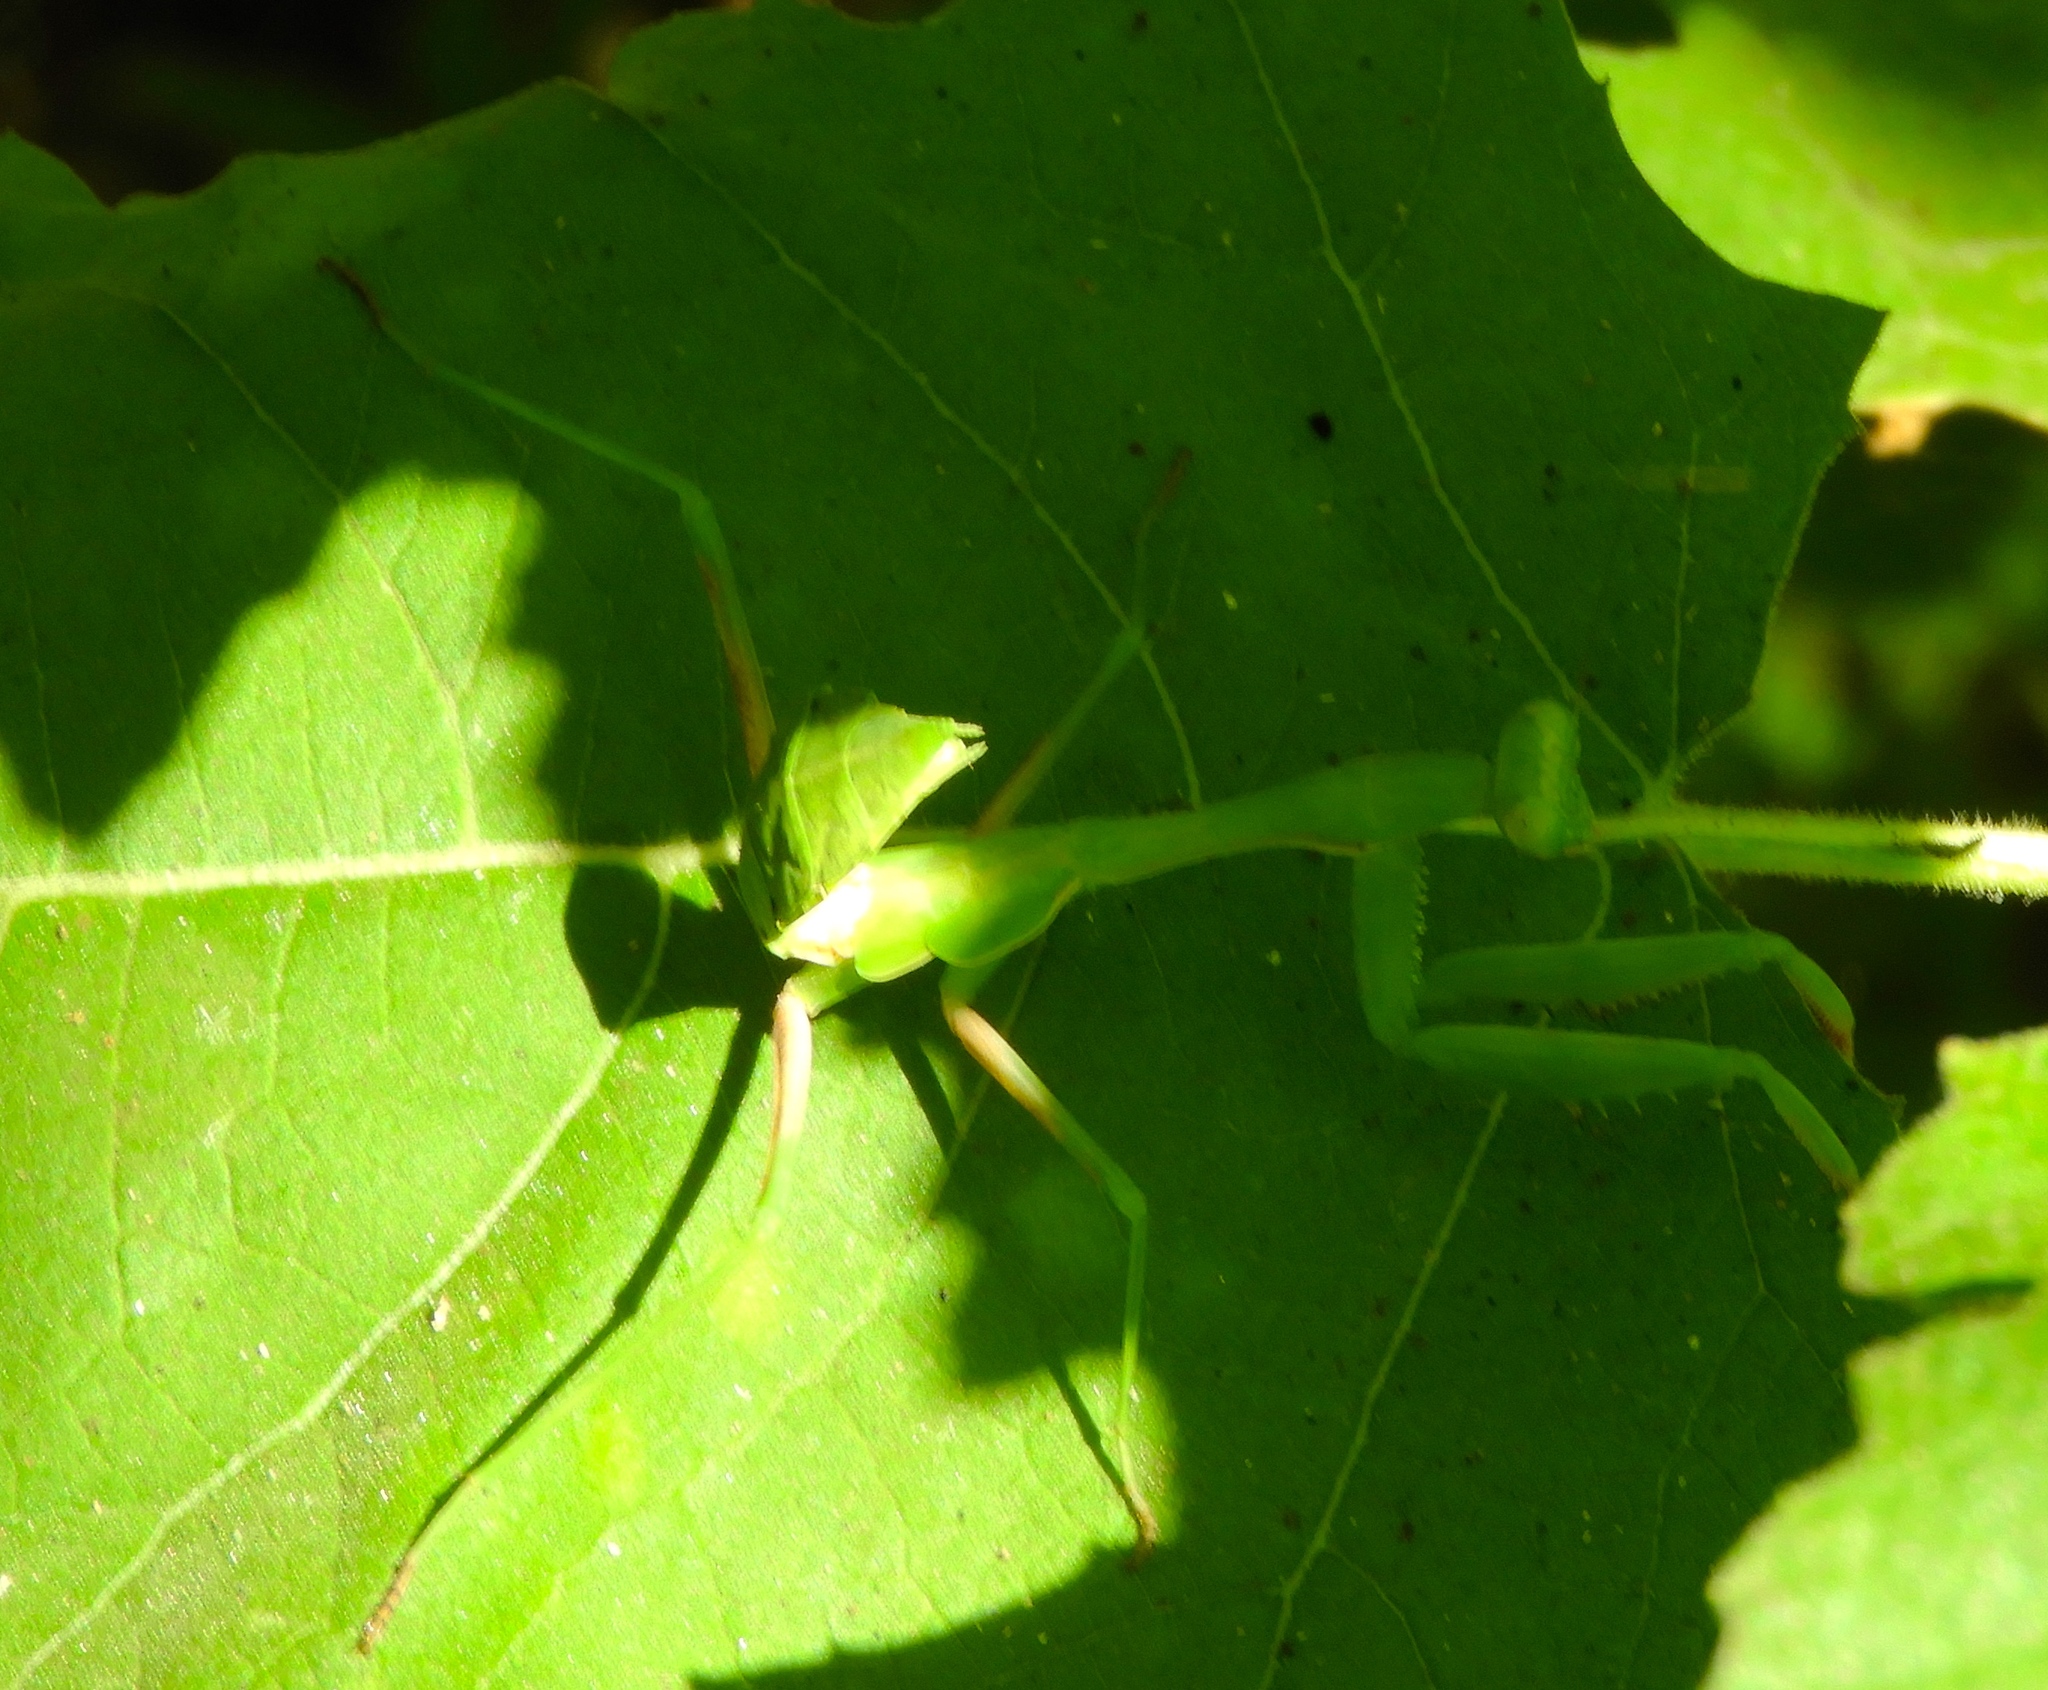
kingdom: Animalia
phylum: Arthropoda
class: Insecta
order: Mantodea
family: Mantidae
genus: Stagmomantis
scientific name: Stagmomantis limbata
